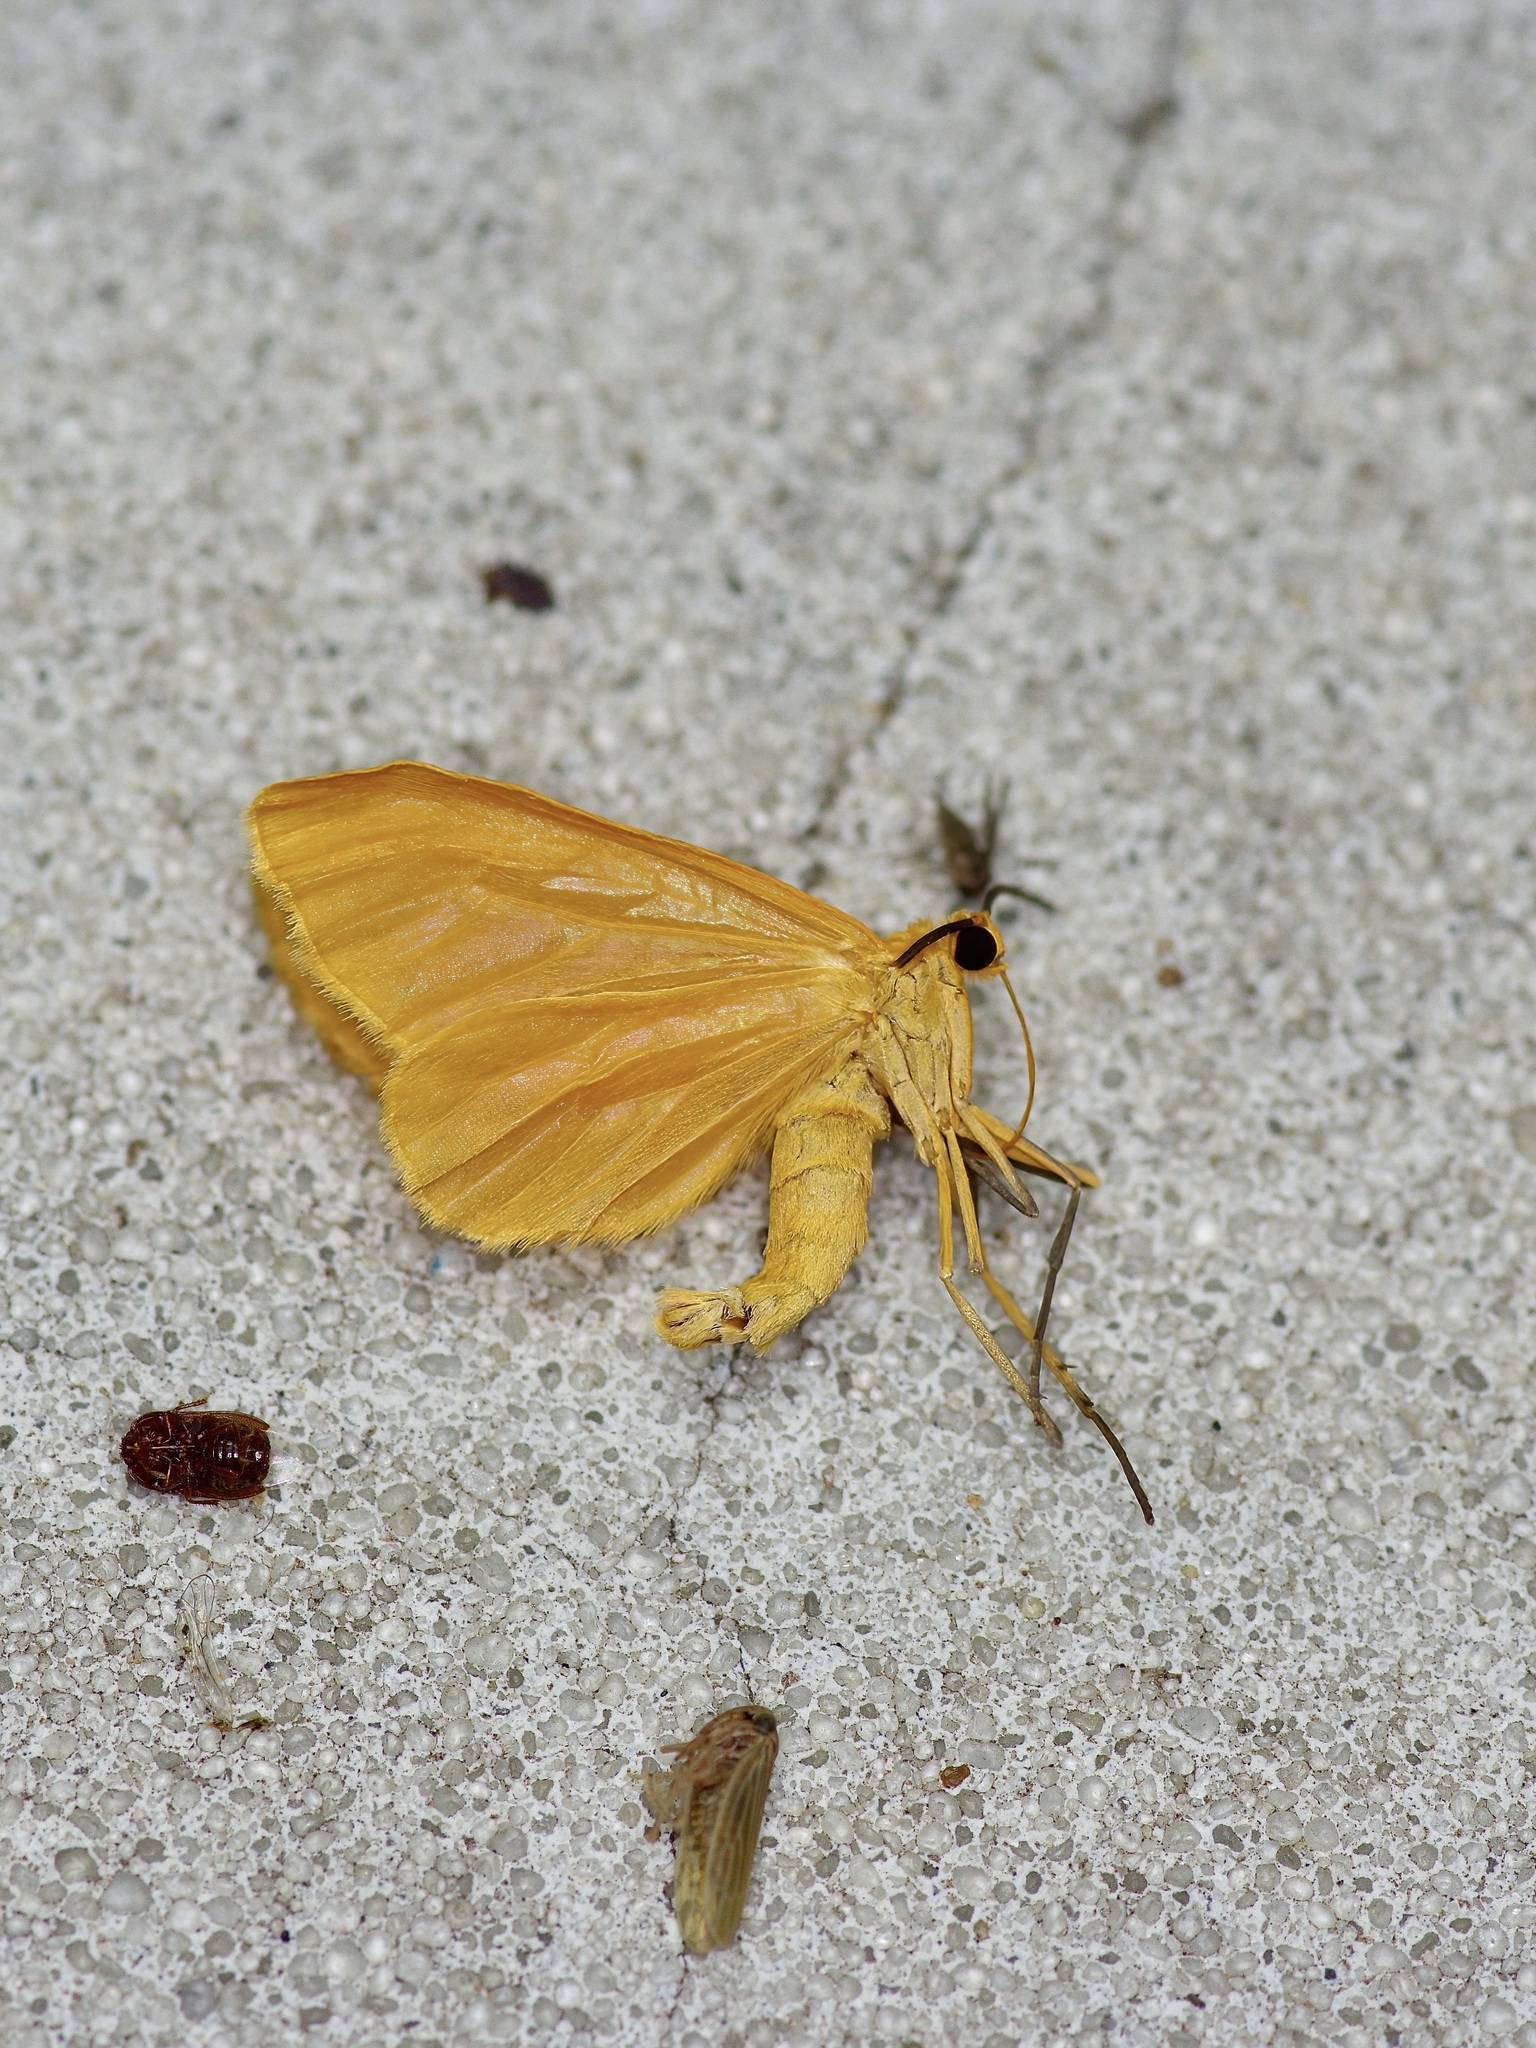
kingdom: Animalia
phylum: Arthropoda
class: Insecta
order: Lepidoptera
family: Geometridae
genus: Eubaphe
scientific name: Eubaphe unicolor
